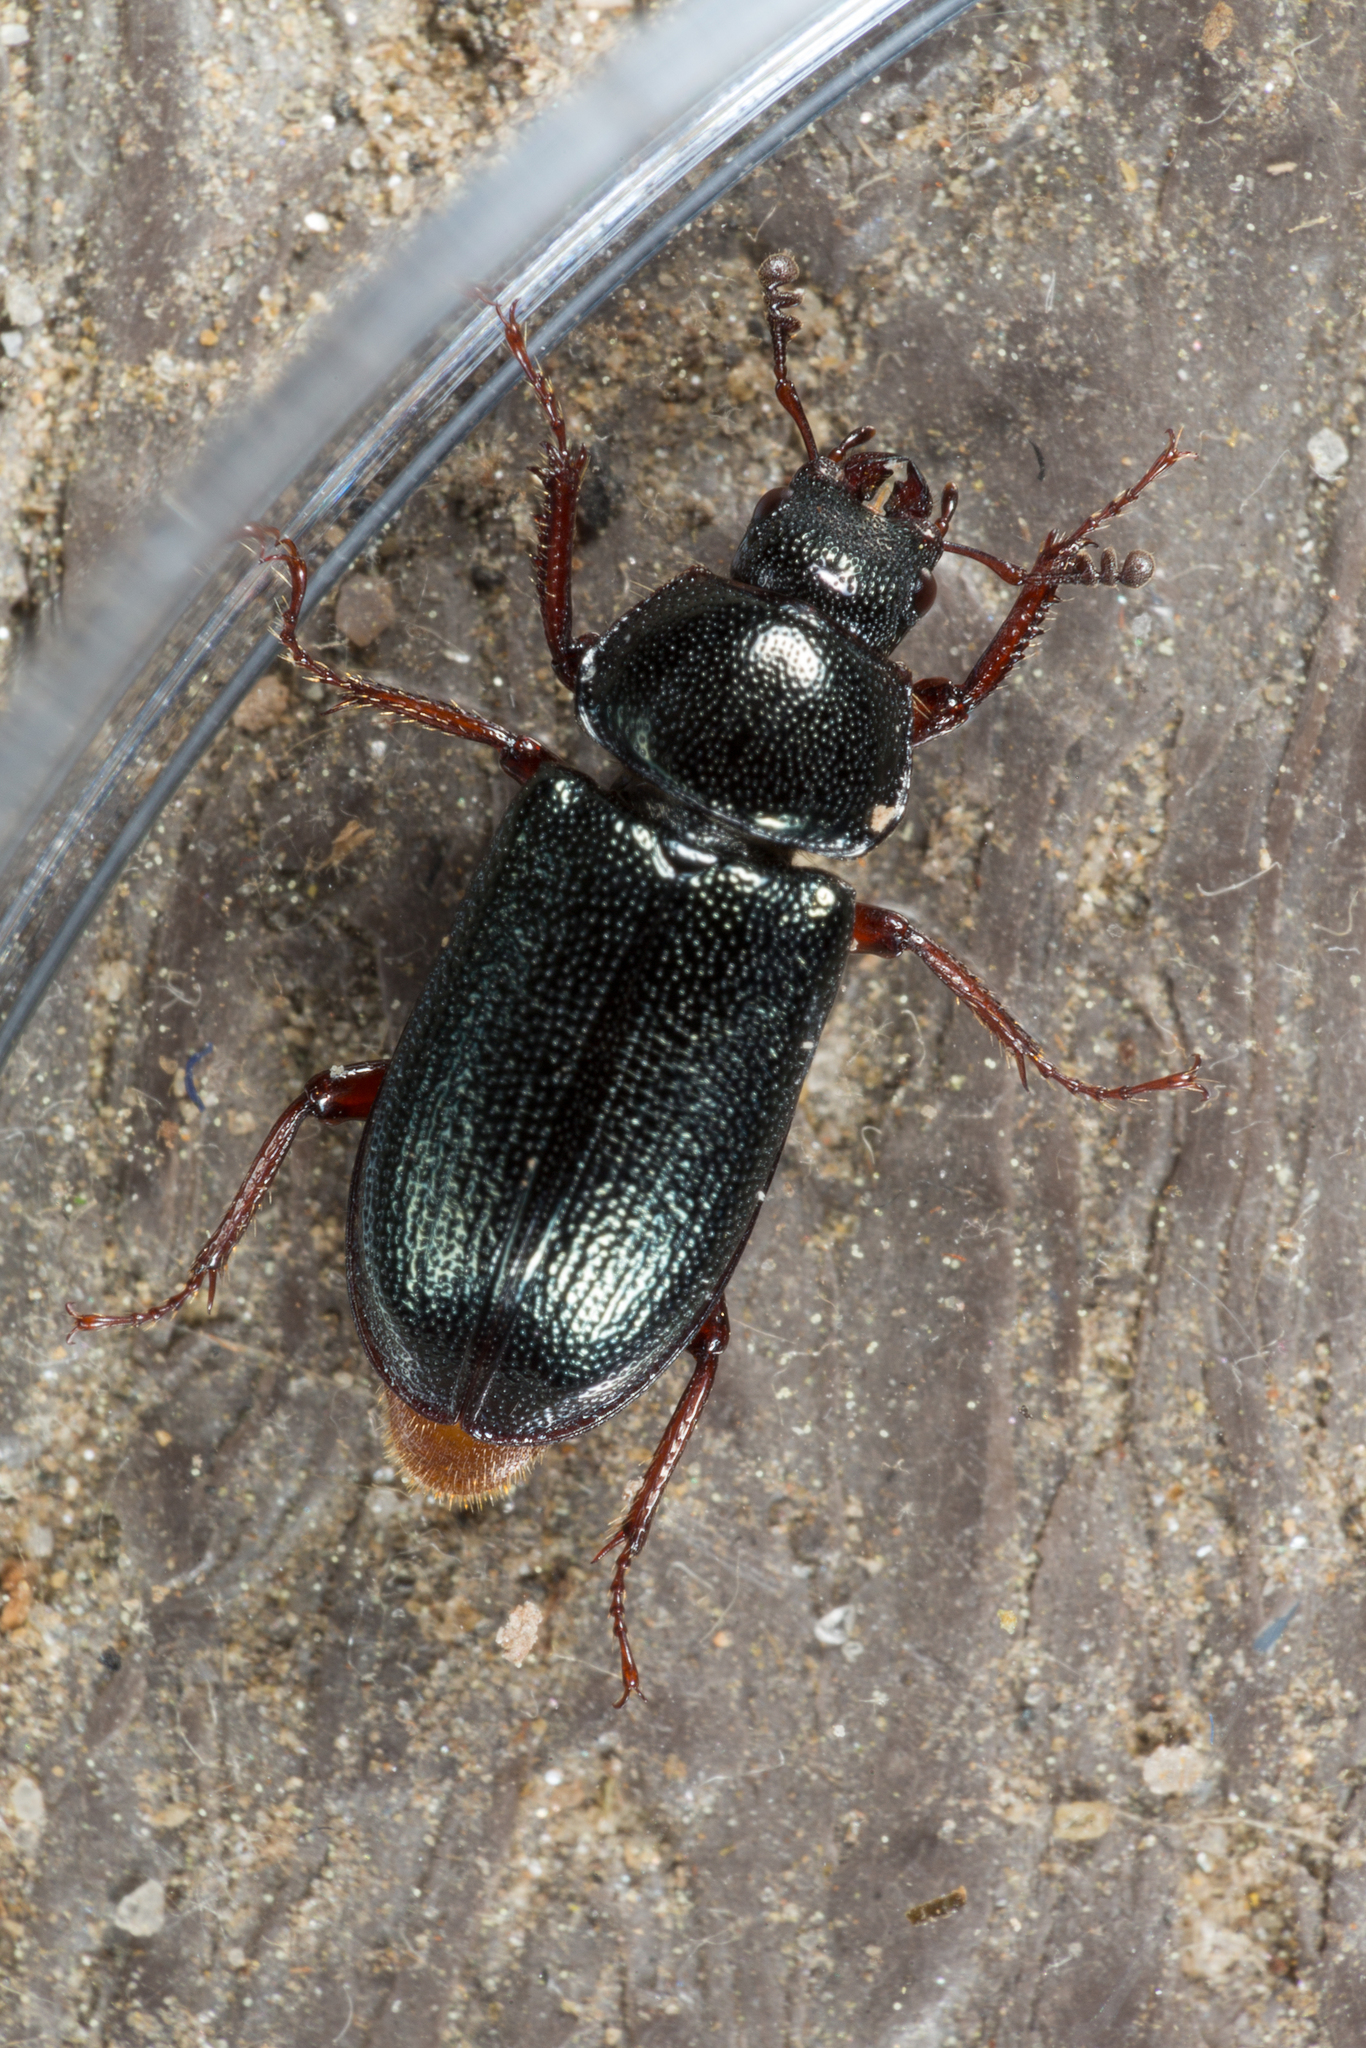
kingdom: Animalia
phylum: Arthropoda
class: Insecta
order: Coleoptera
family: Lucanidae
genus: Platycerus
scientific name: Platycerus quercus
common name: Oak stag beetle
